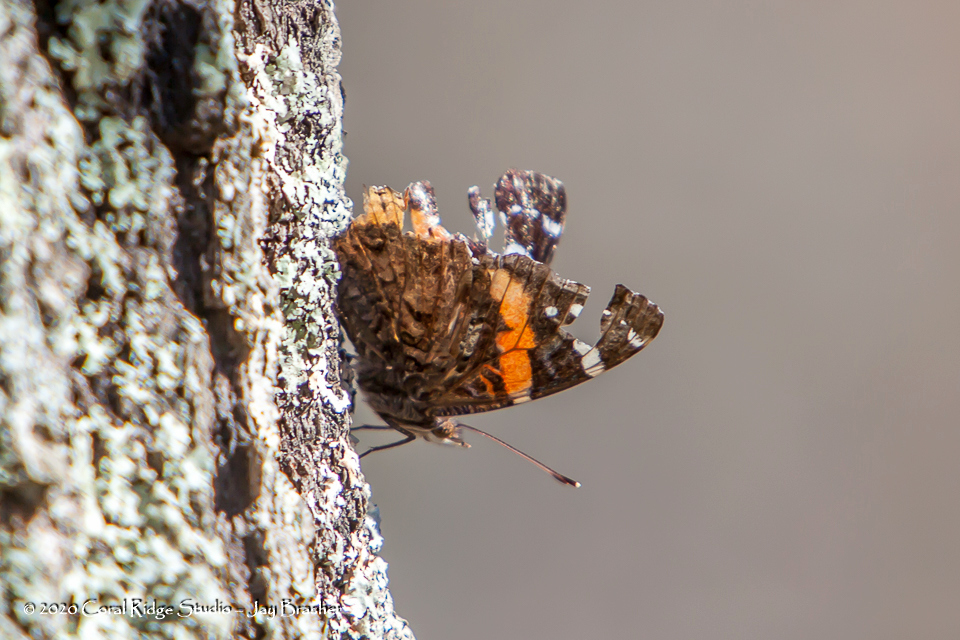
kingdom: Animalia
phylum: Arthropoda
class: Insecta
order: Lepidoptera
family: Nymphalidae
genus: Vanessa
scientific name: Vanessa atalanta
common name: Red admiral
